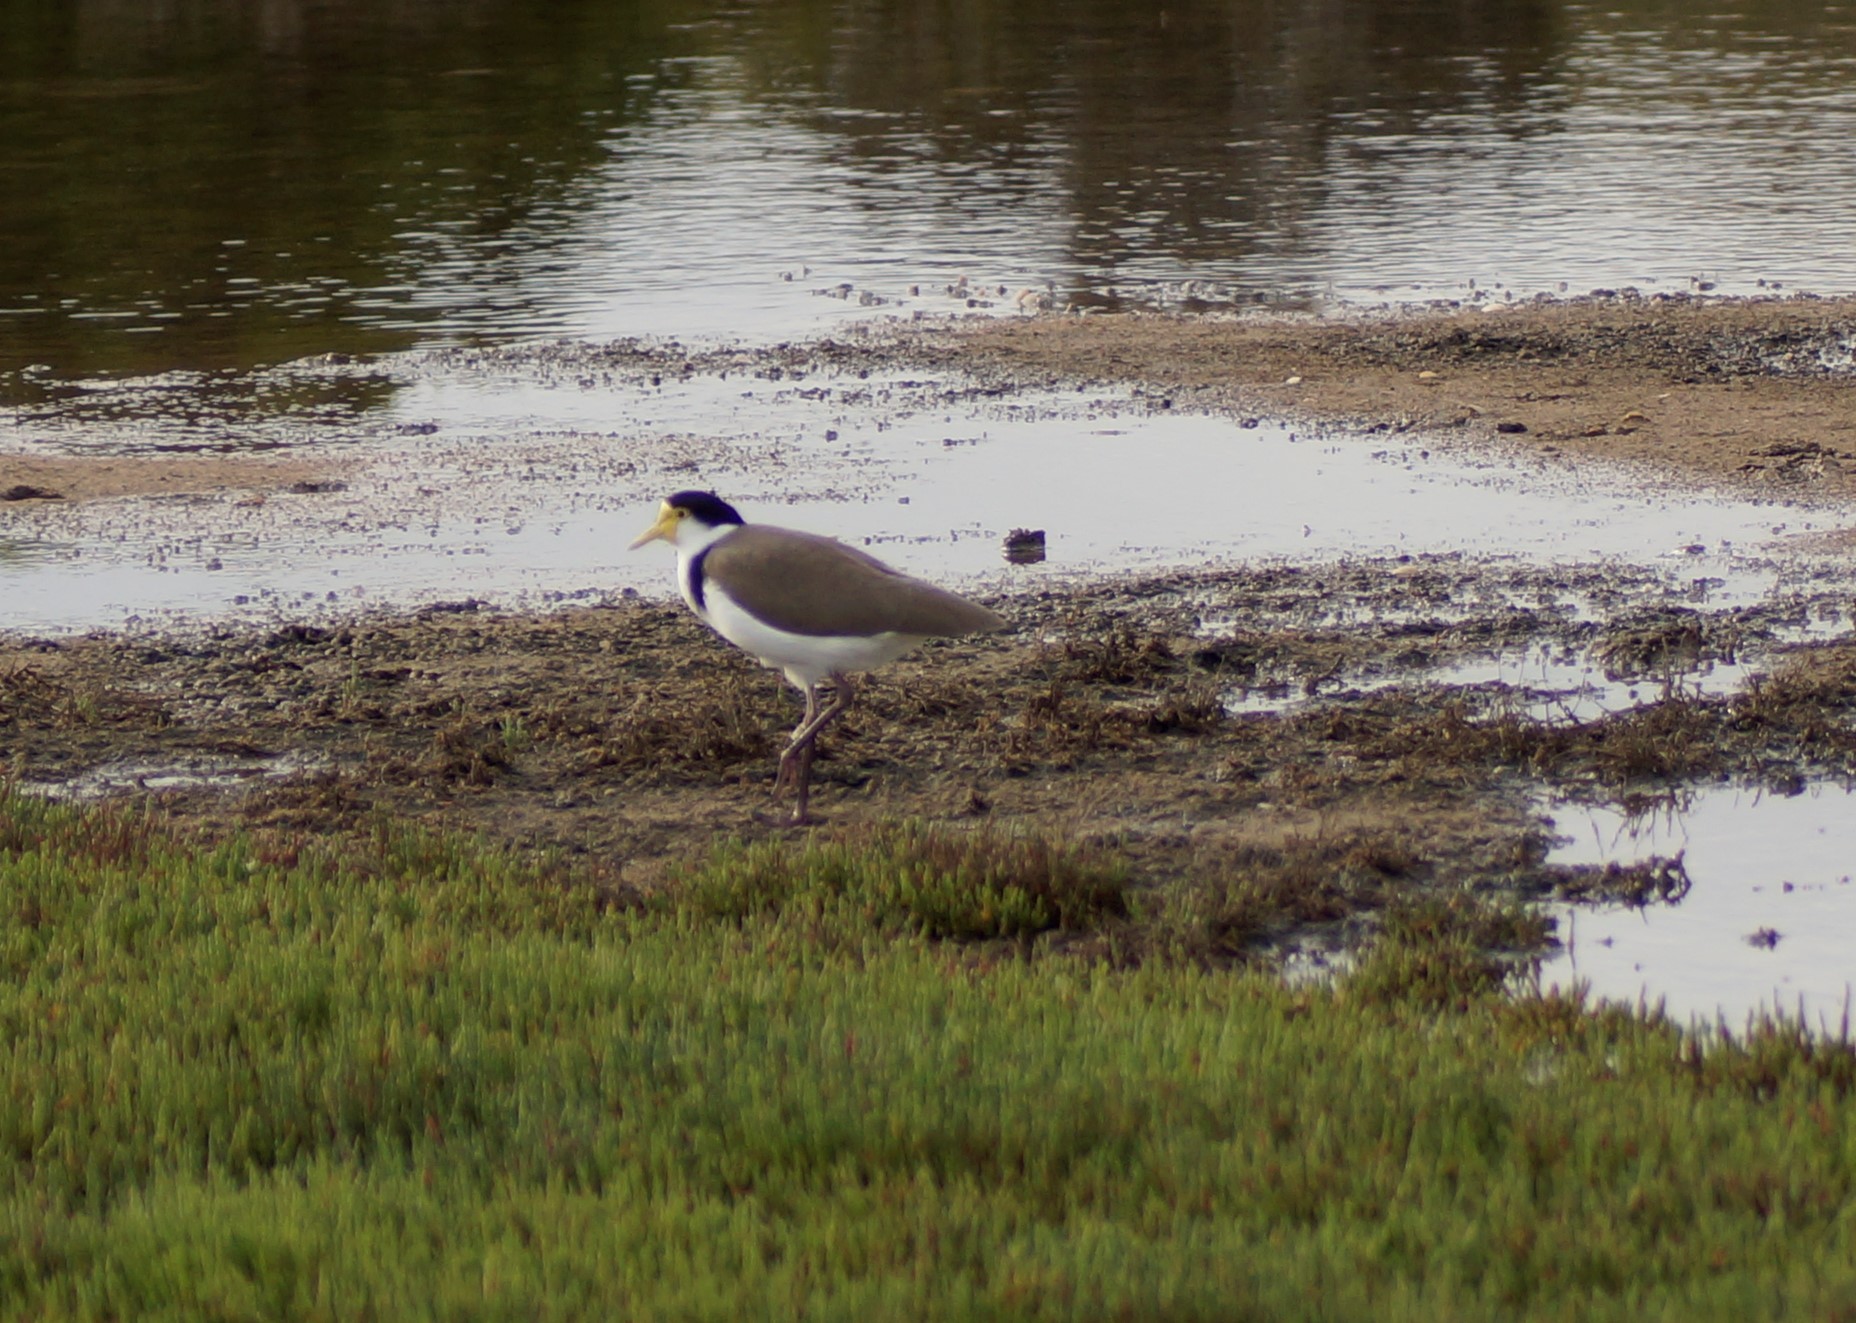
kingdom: Animalia
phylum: Chordata
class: Aves
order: Charadriiformes
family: Charadriidae
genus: Vanellus
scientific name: Vanellus miles
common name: Masked lapwing
